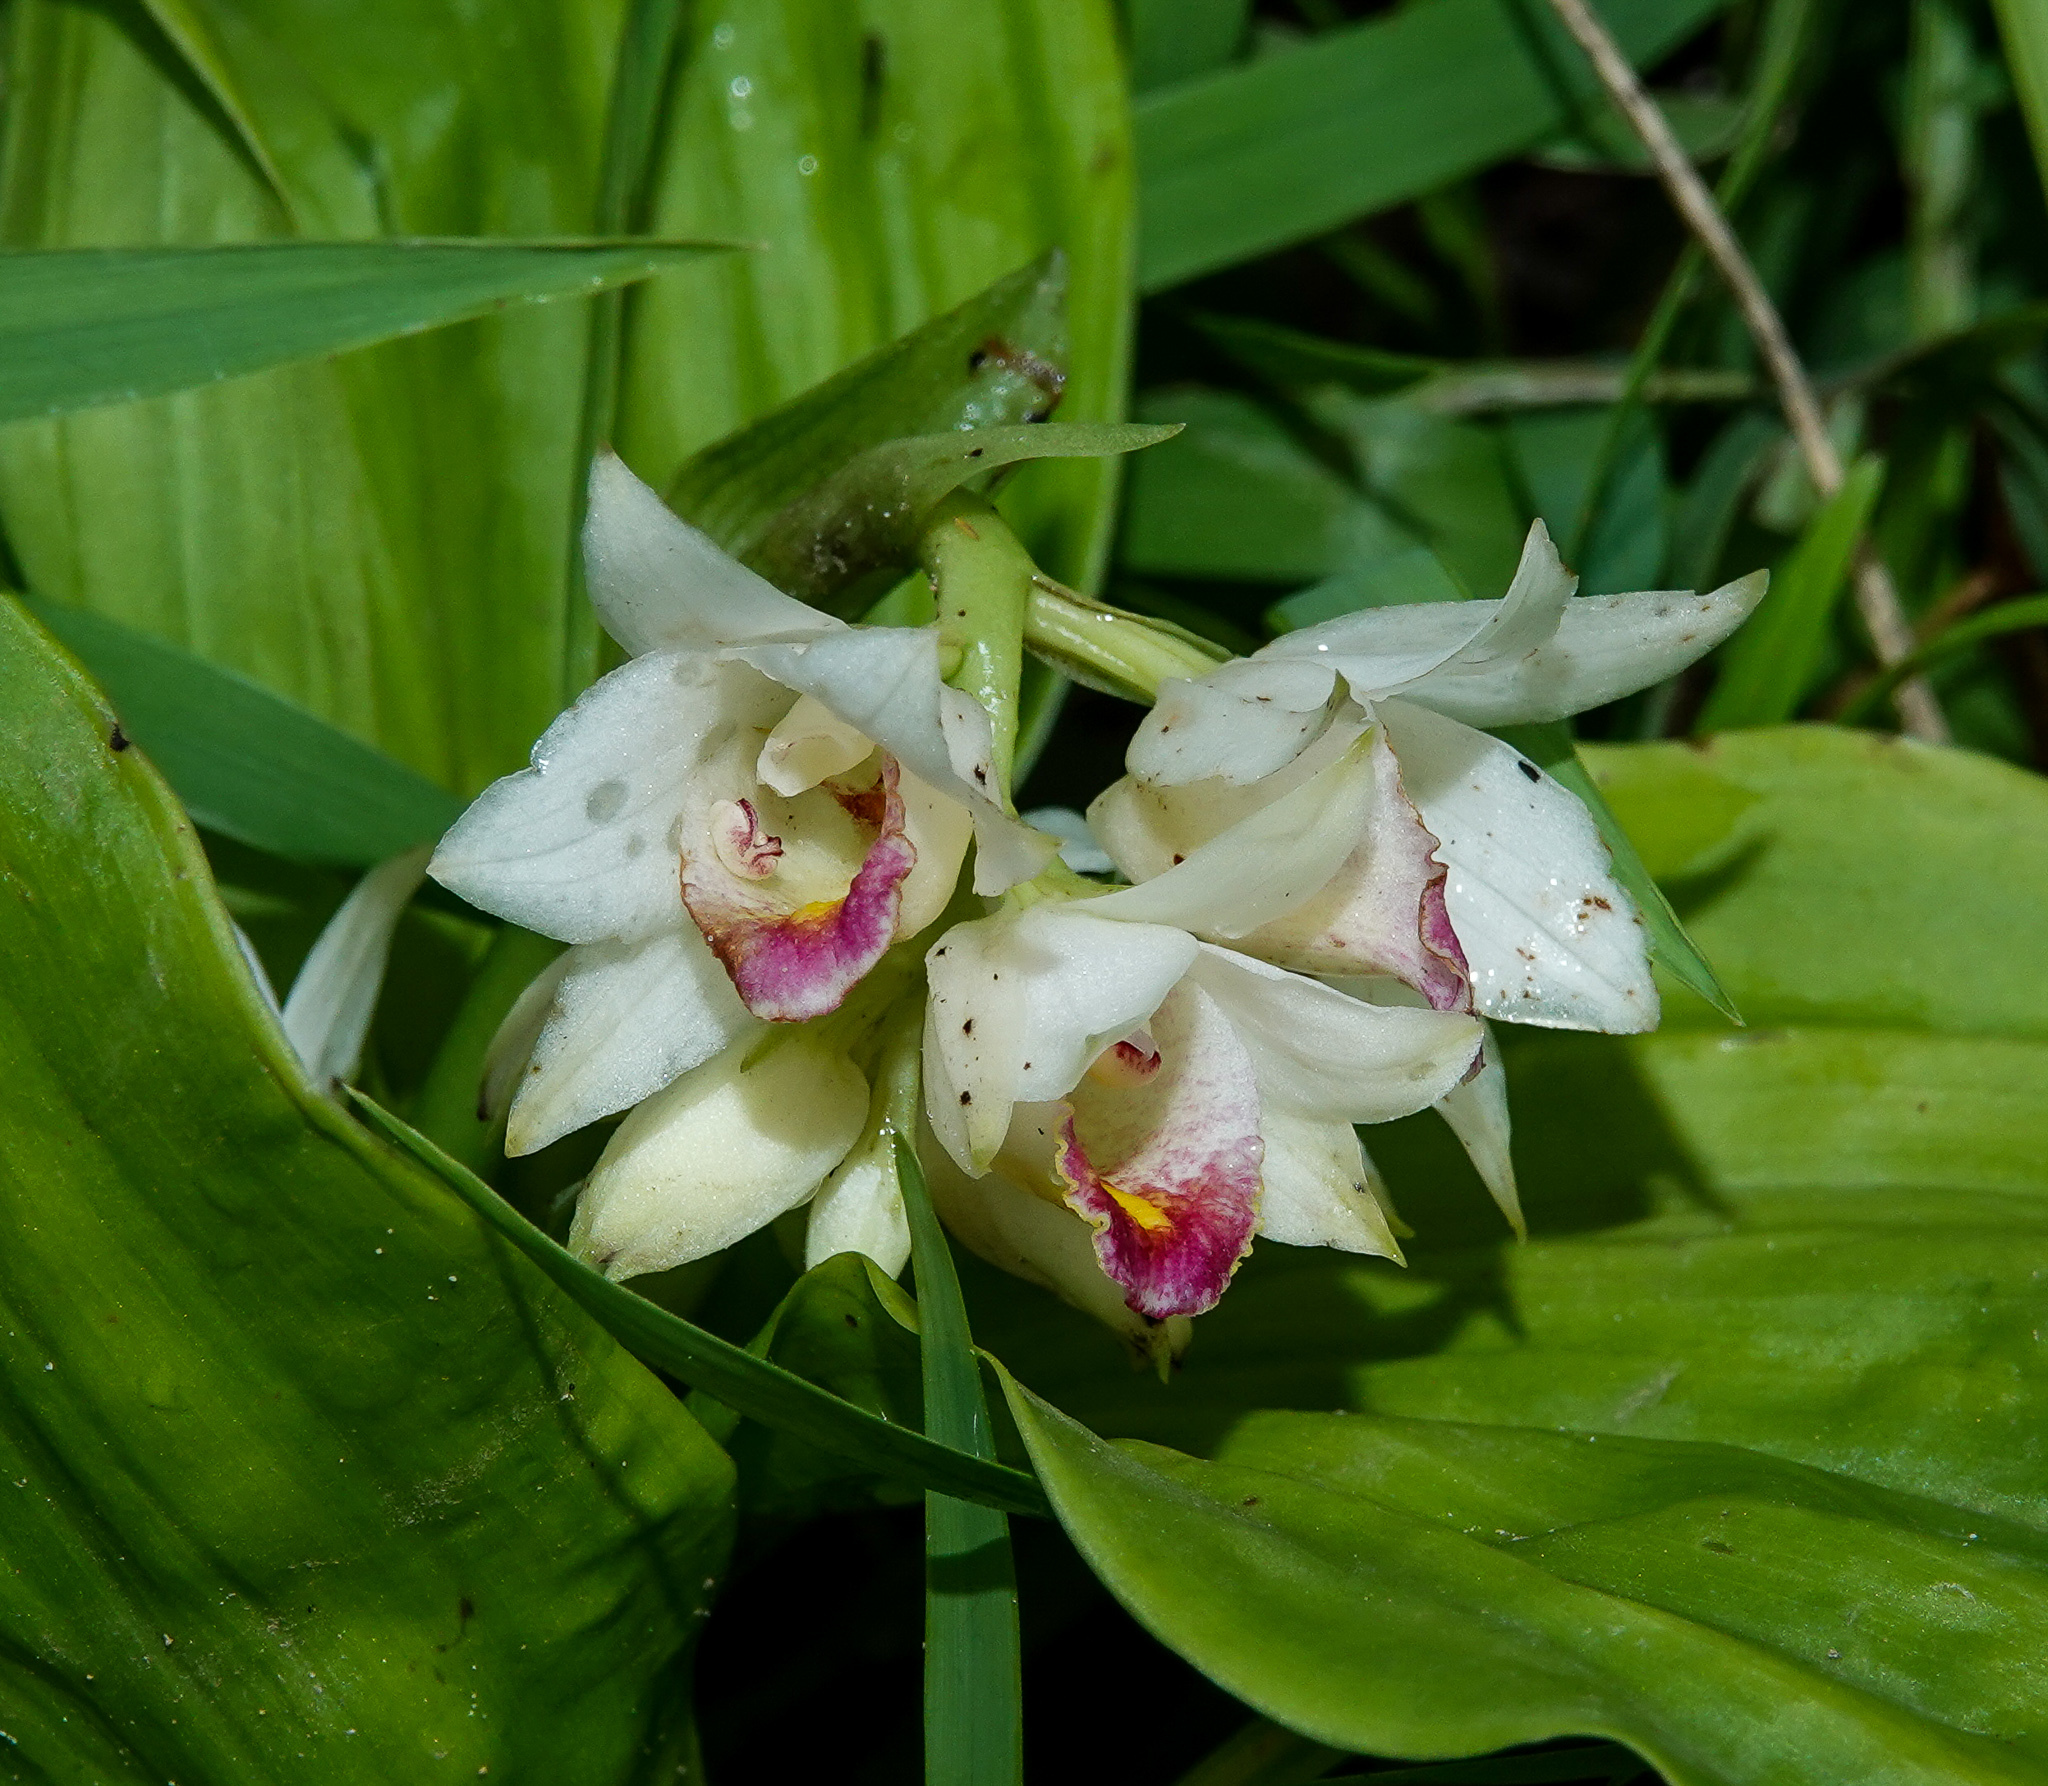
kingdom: Plantae
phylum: Tracheophyta
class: Liliopsida
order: Asparagales
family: Orchidaceae
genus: Eulophia
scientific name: Eulophia diffusiflora
